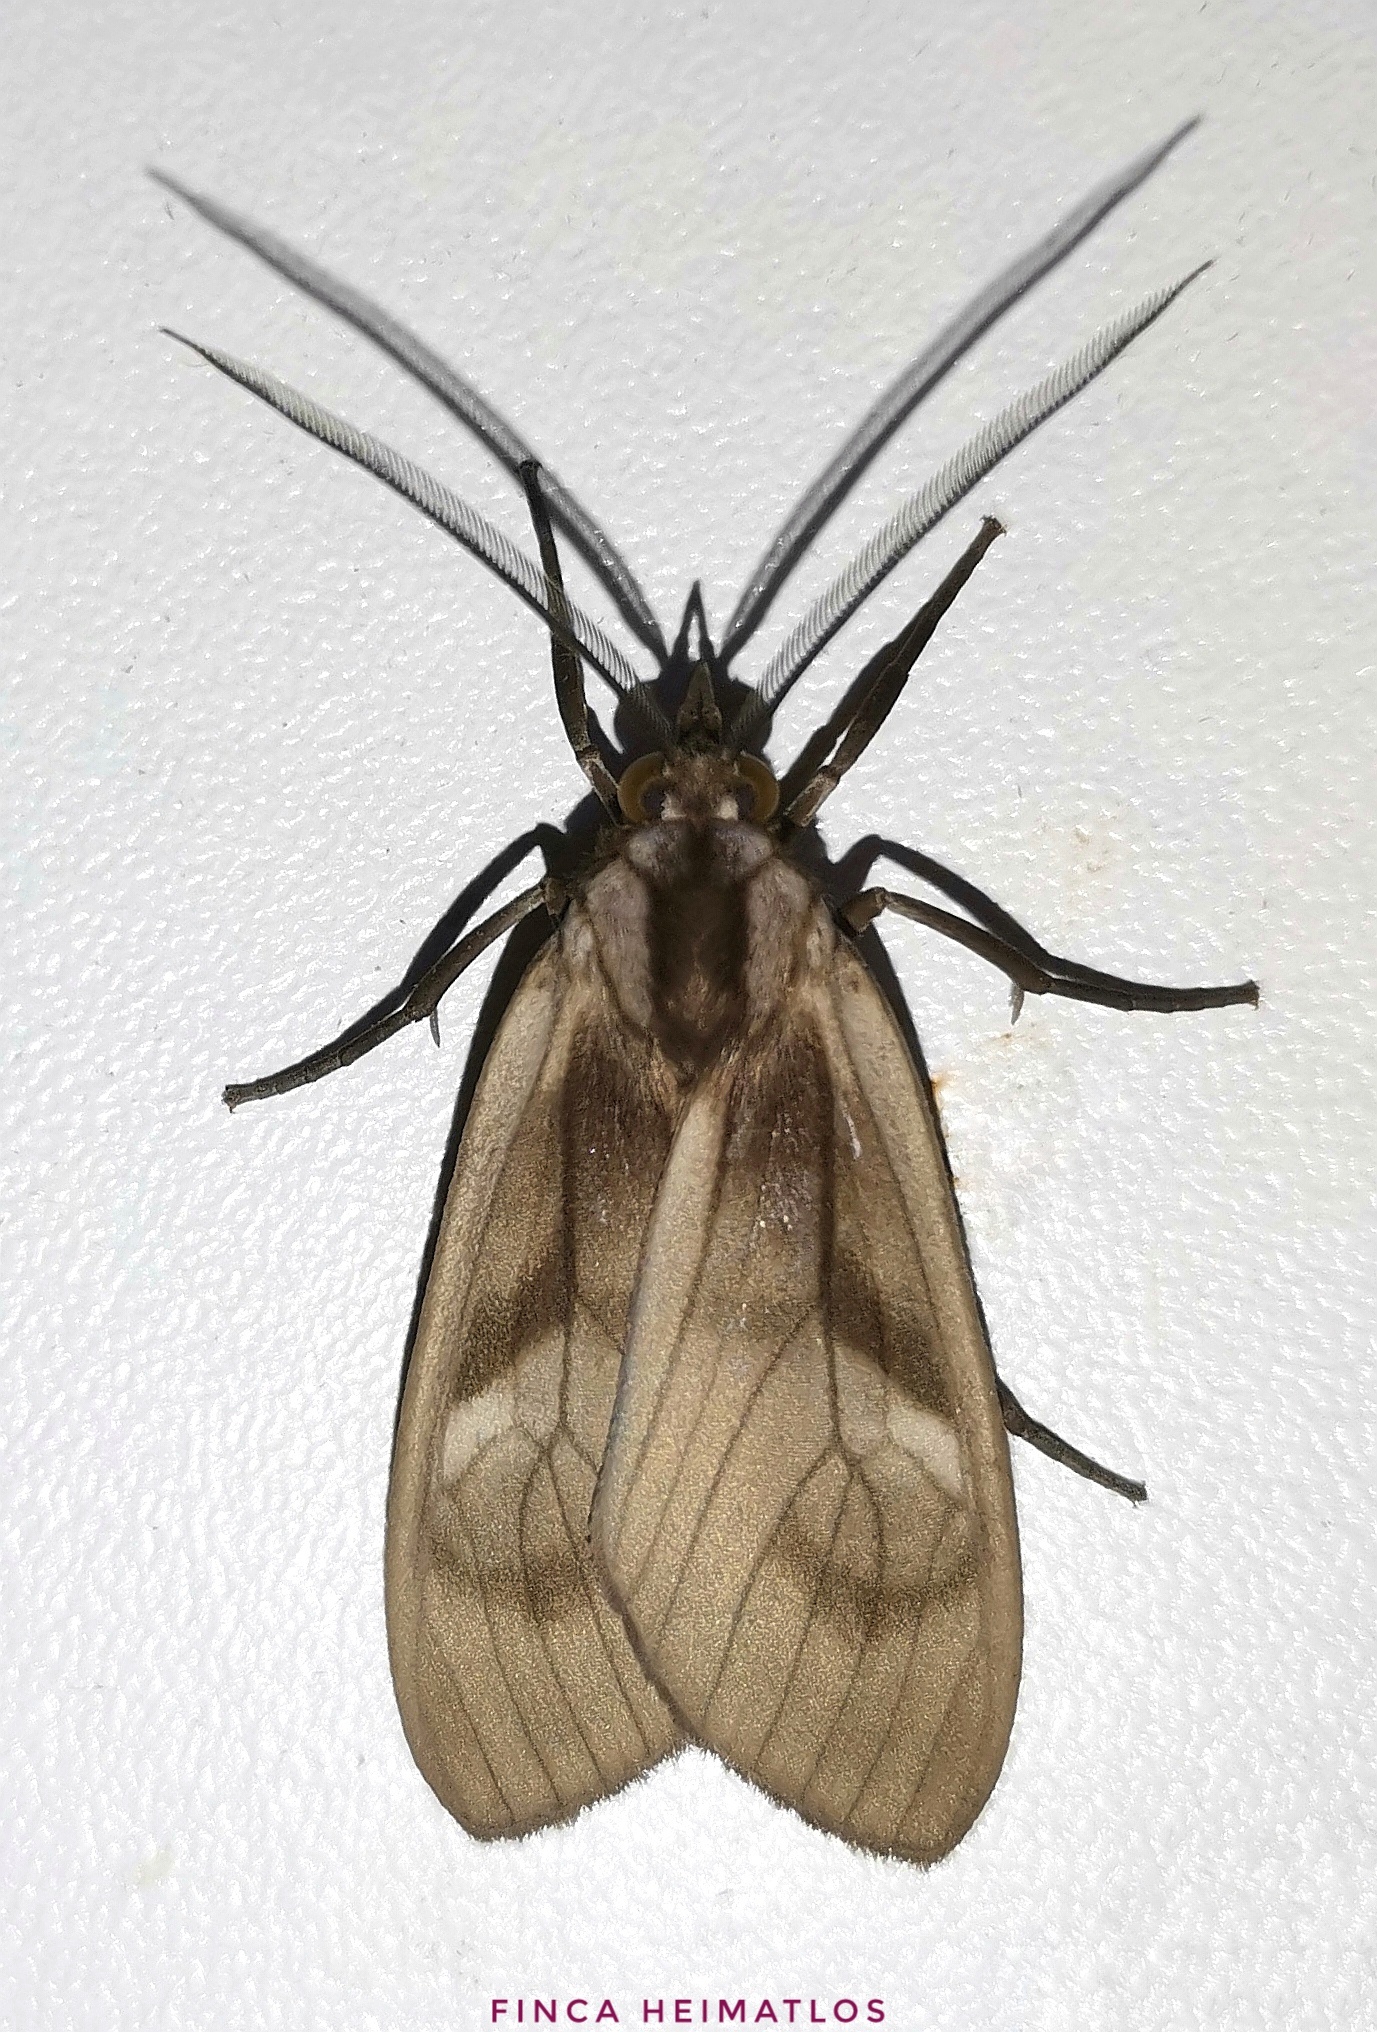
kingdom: Animalia
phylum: Arthropoda
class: Insecta
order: Lepidoptera
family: Erebidae
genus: Opharus
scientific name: Opharus morosa
